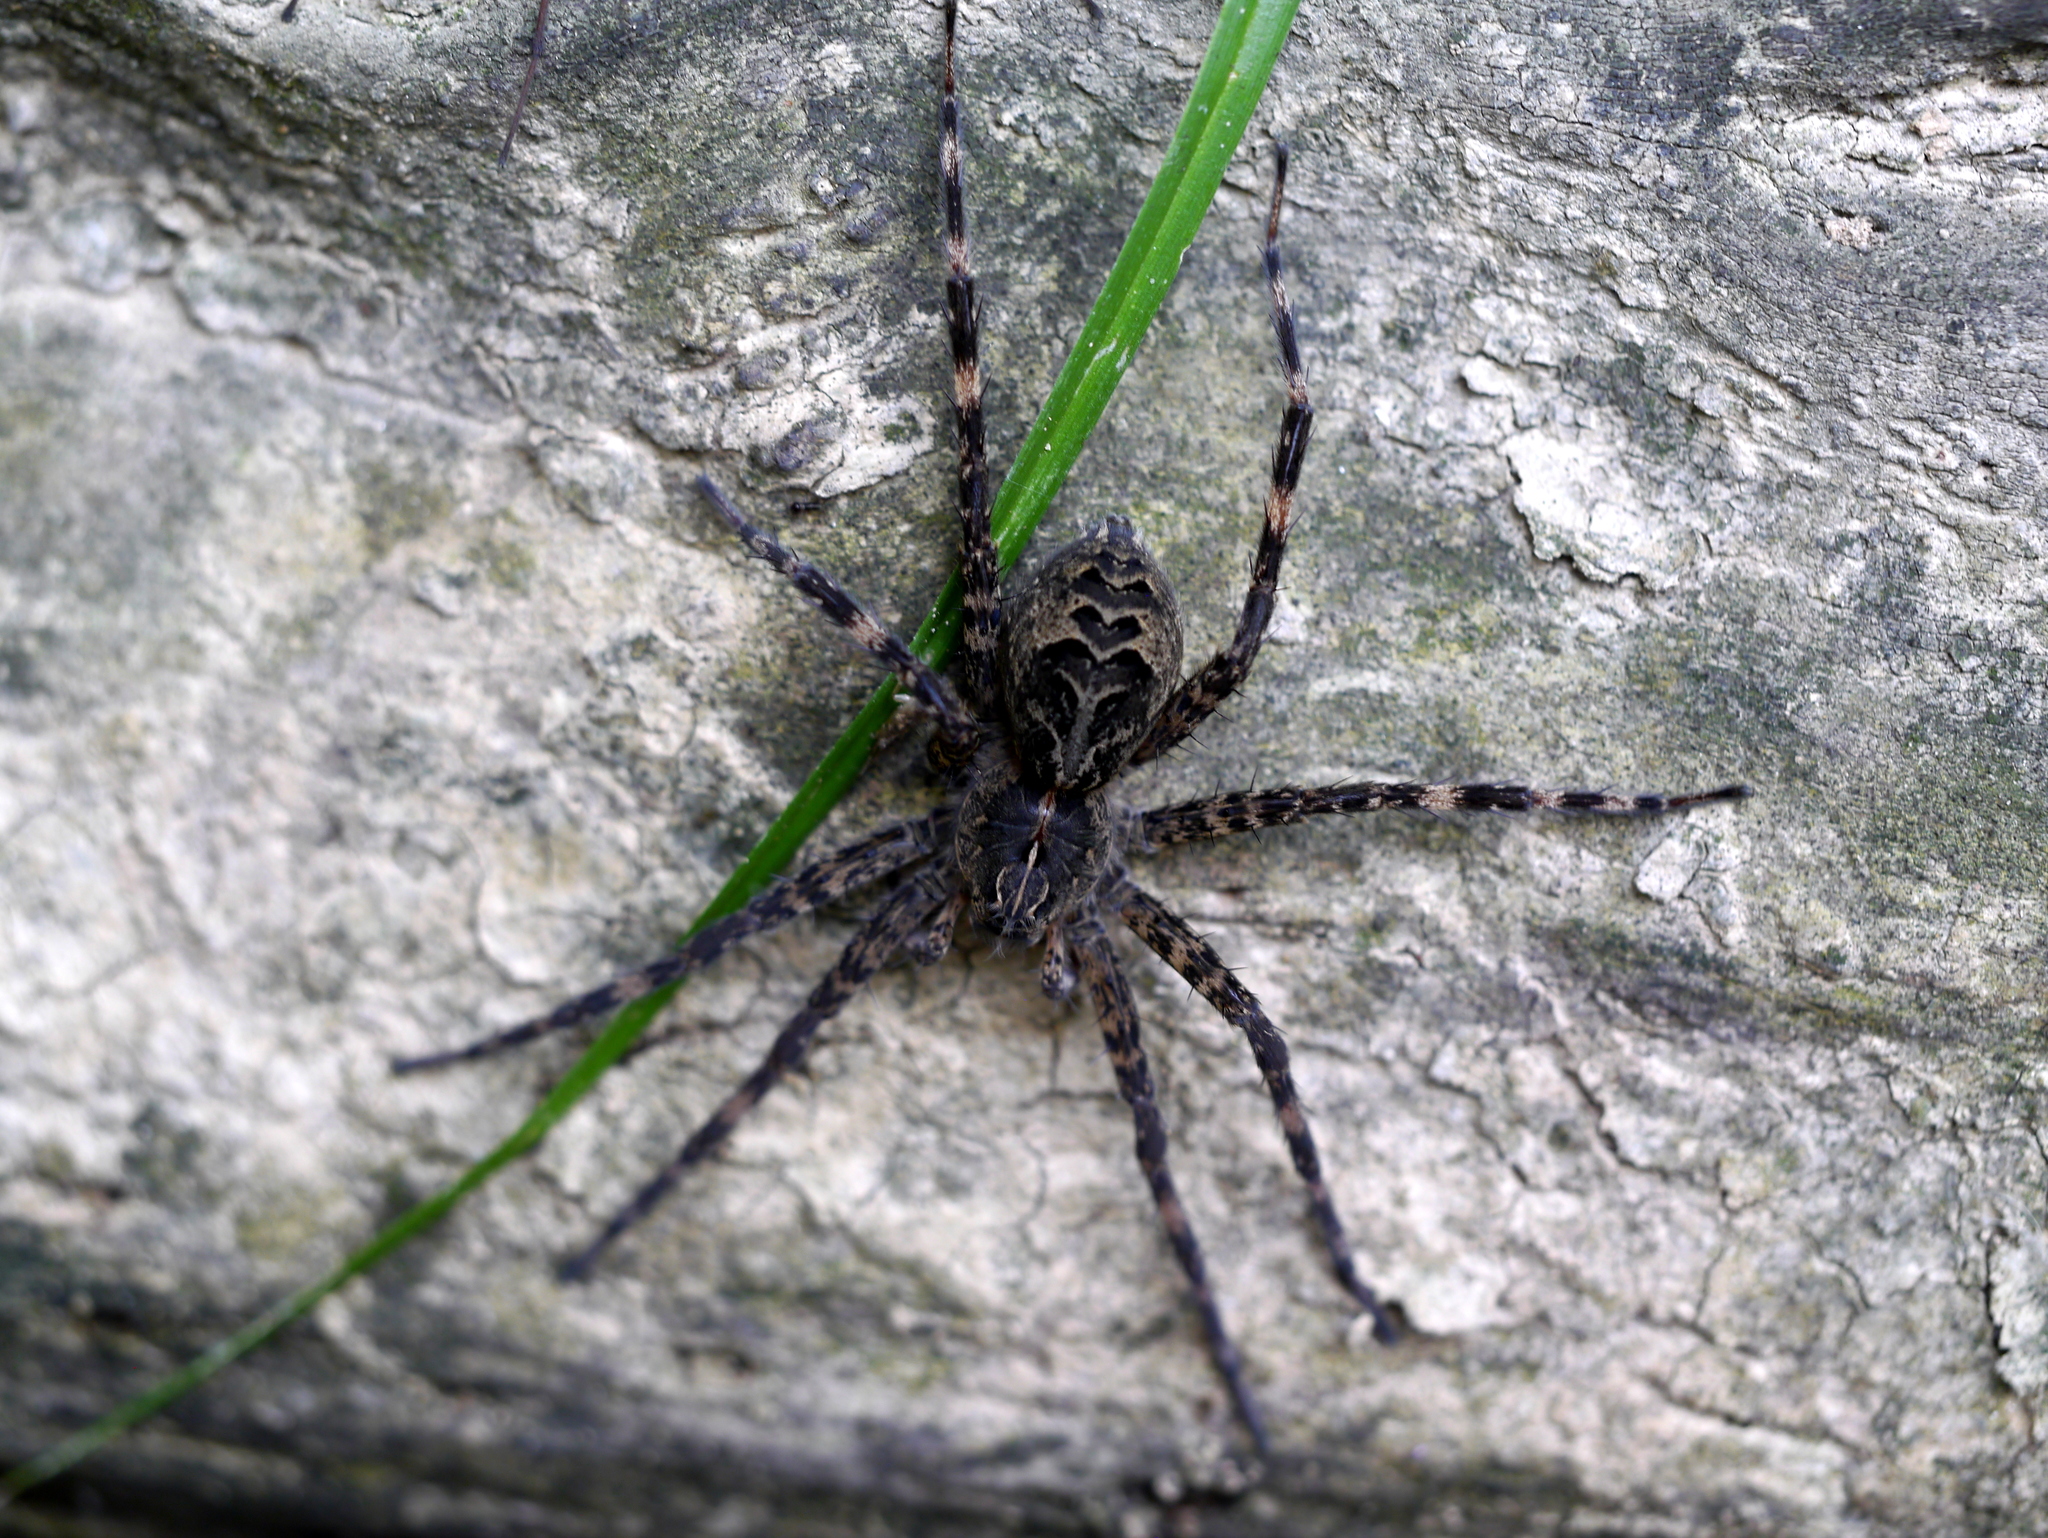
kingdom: Animalia
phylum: Arthropoda
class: Arachnida
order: Araneae
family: Pisauridae
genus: Dolomedes
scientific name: Dolomedes scriptus
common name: Striped fishing spider
